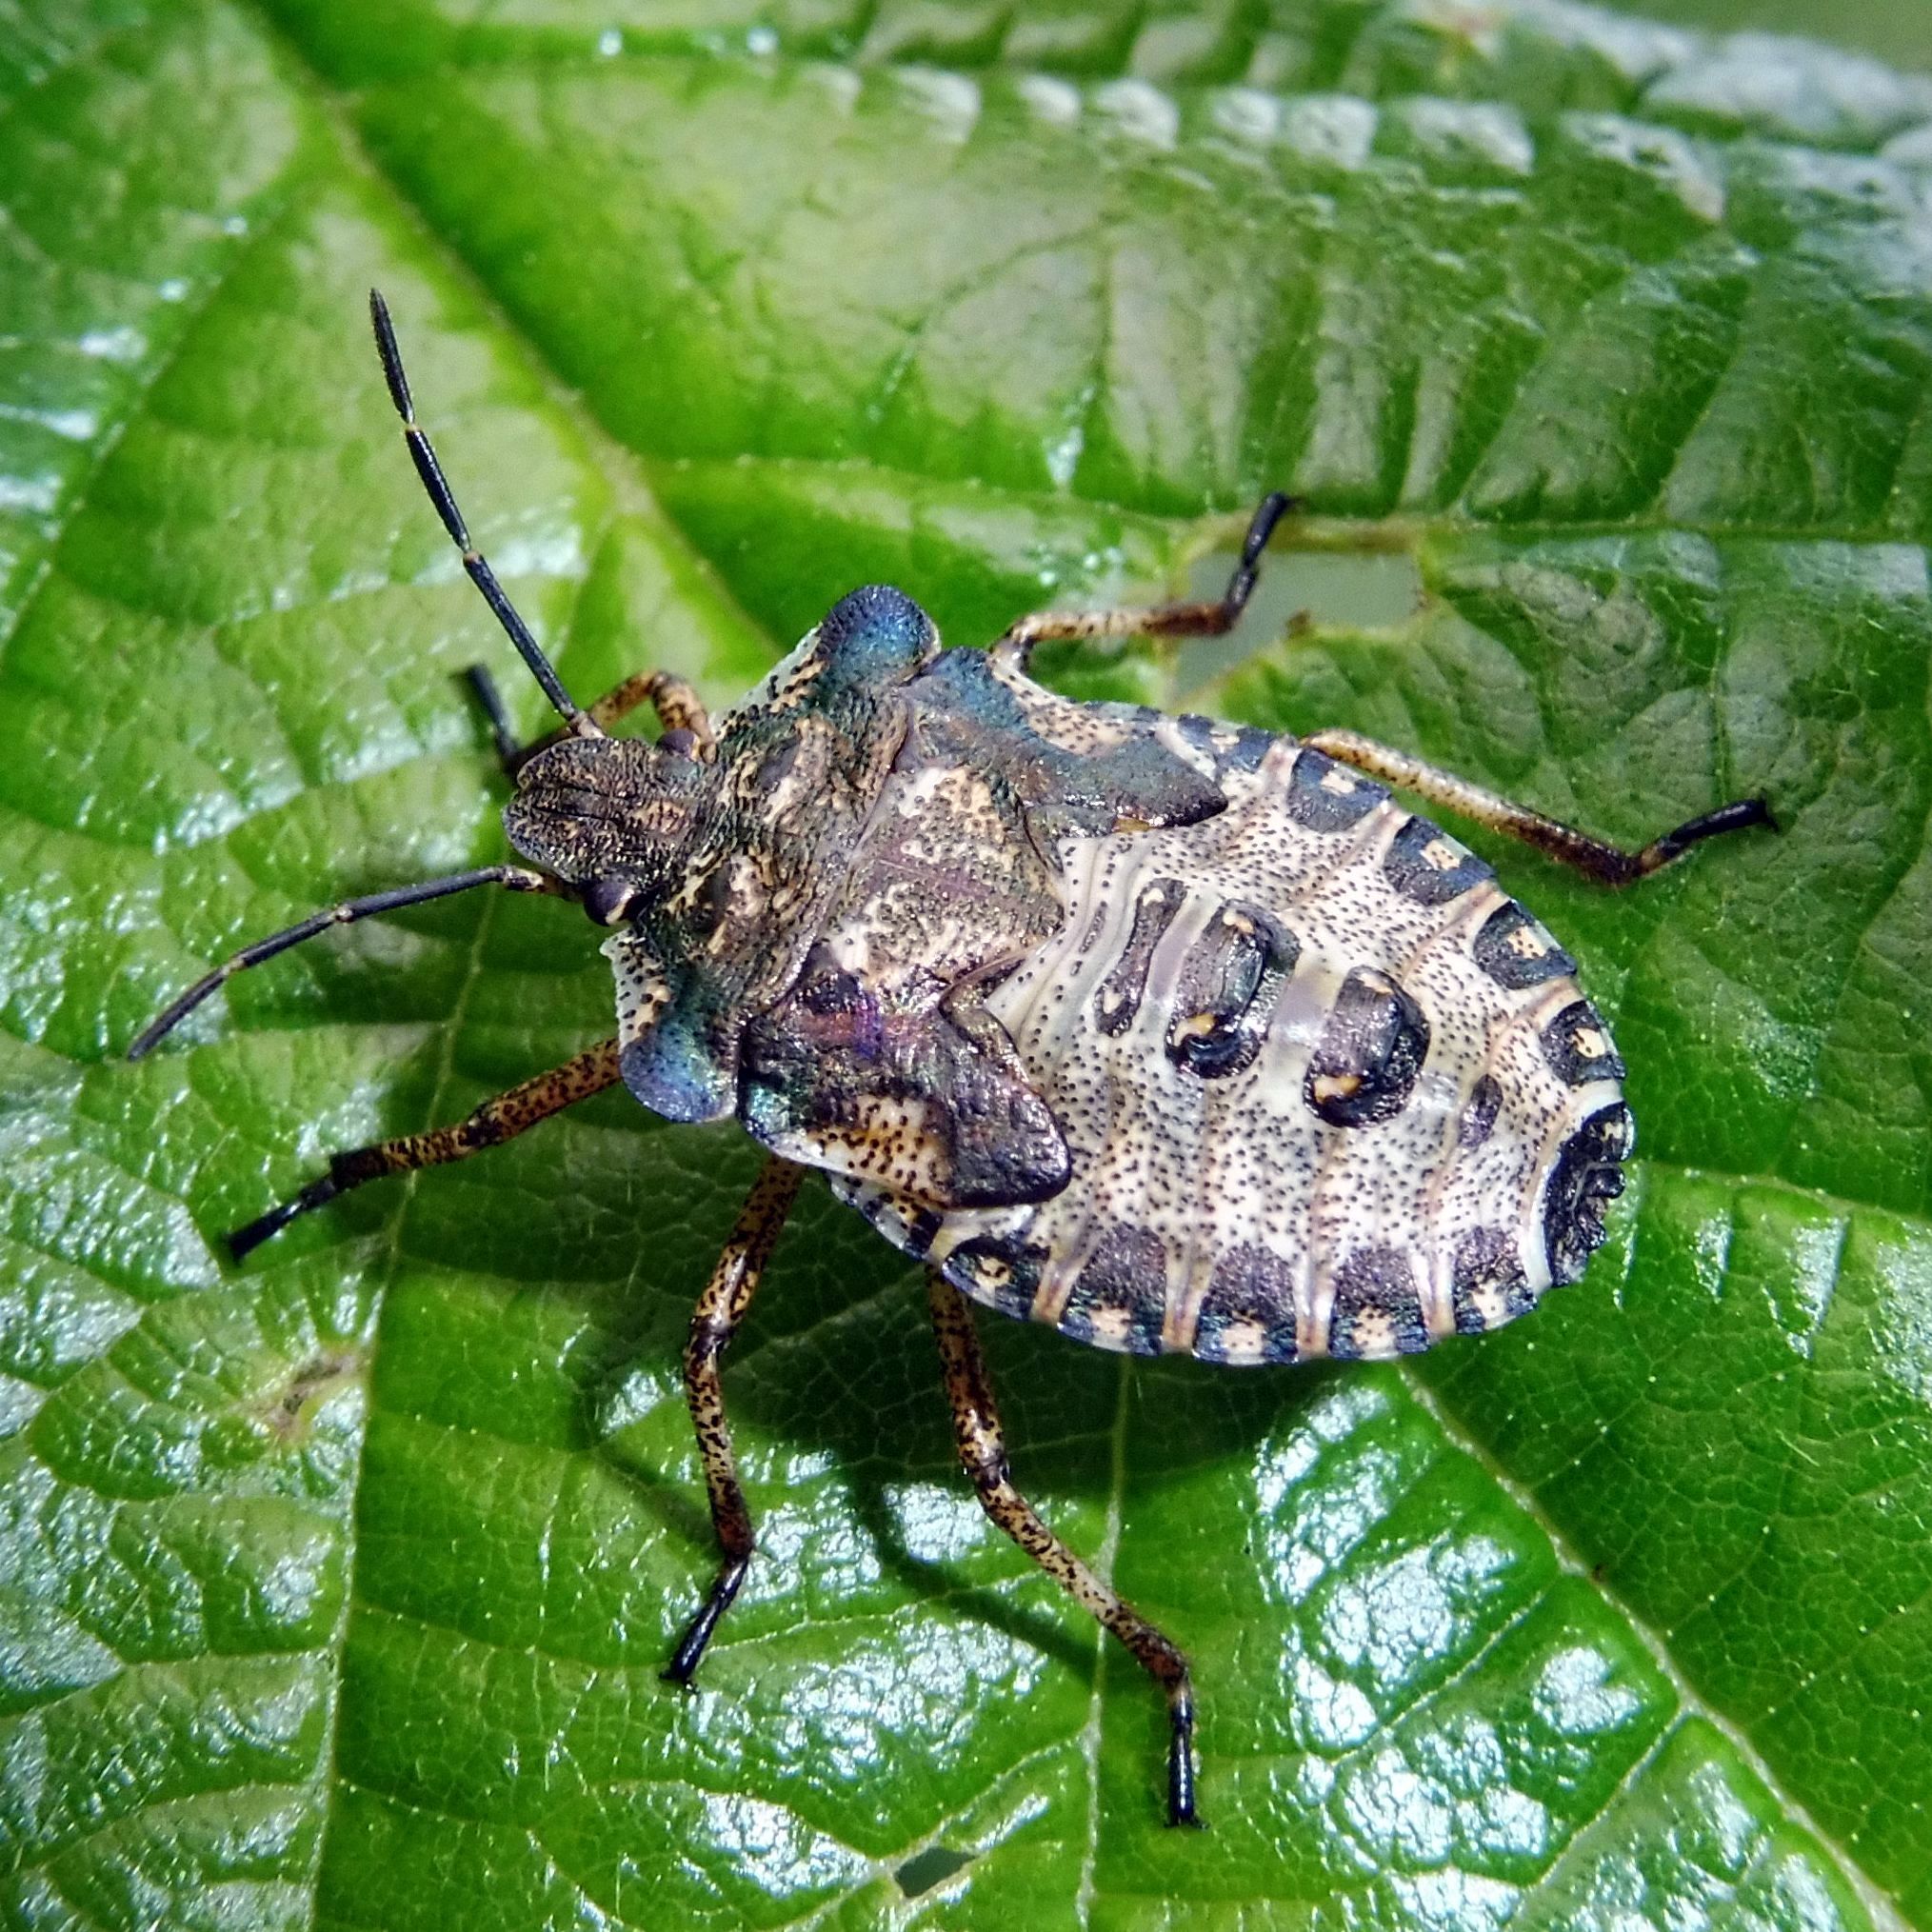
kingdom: Animalia
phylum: Arthropoda
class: Insecta
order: Hemiptera
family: Pentatomidae
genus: Pentatoma
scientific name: Pentatoma rufipes
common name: Forest bug
